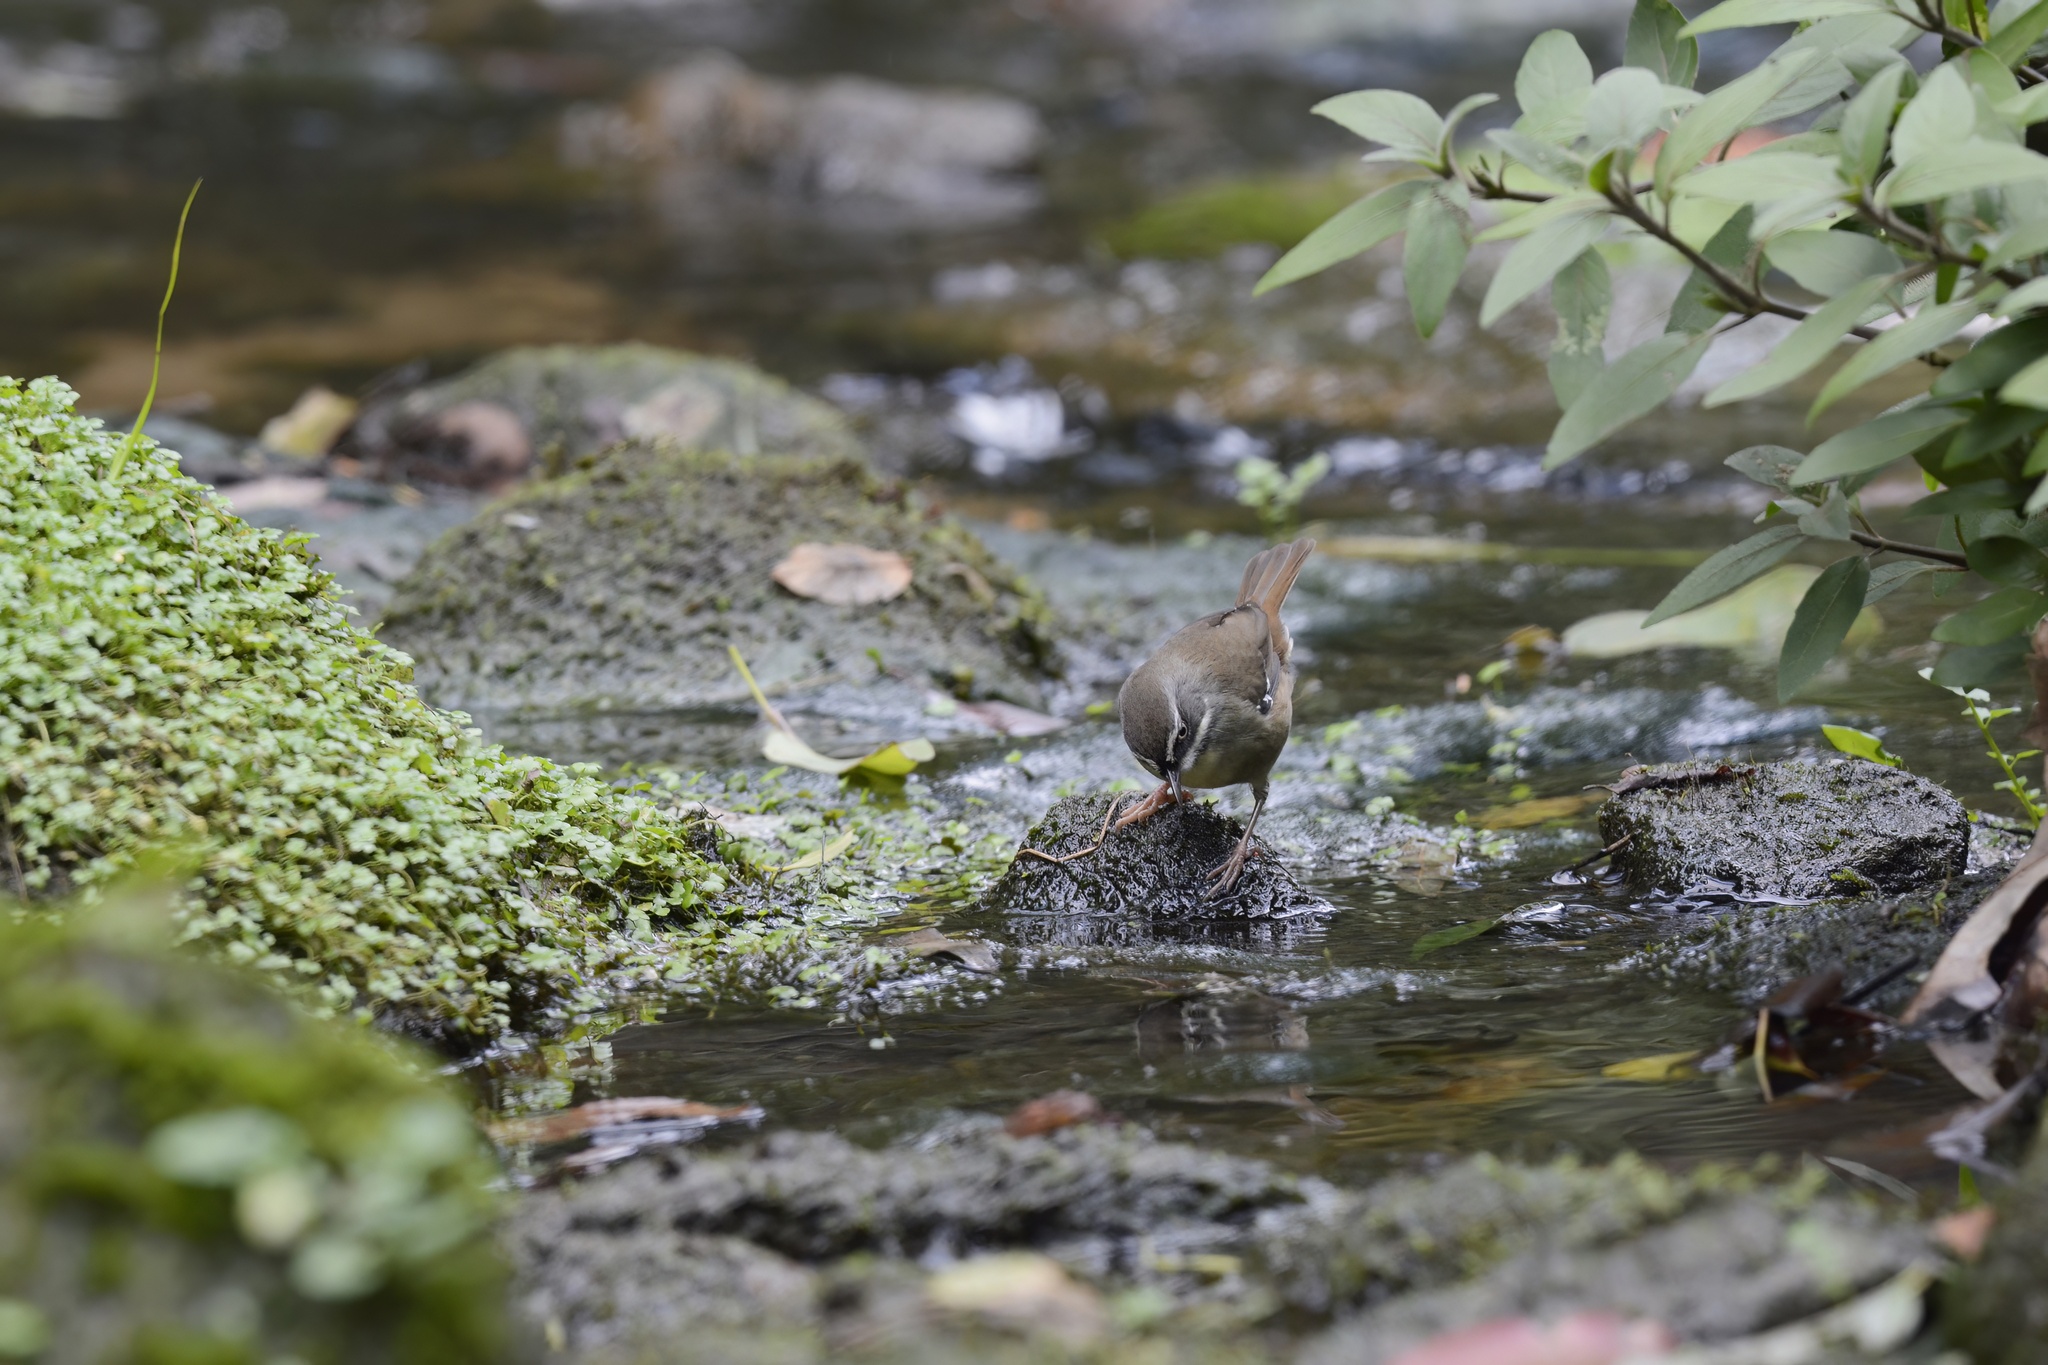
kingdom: Animalia
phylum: Chordata
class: Aves
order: Passeriformes
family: Acanthizidae
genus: Sericornis
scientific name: Sericornis frontalis
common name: White-browed scrubwren
